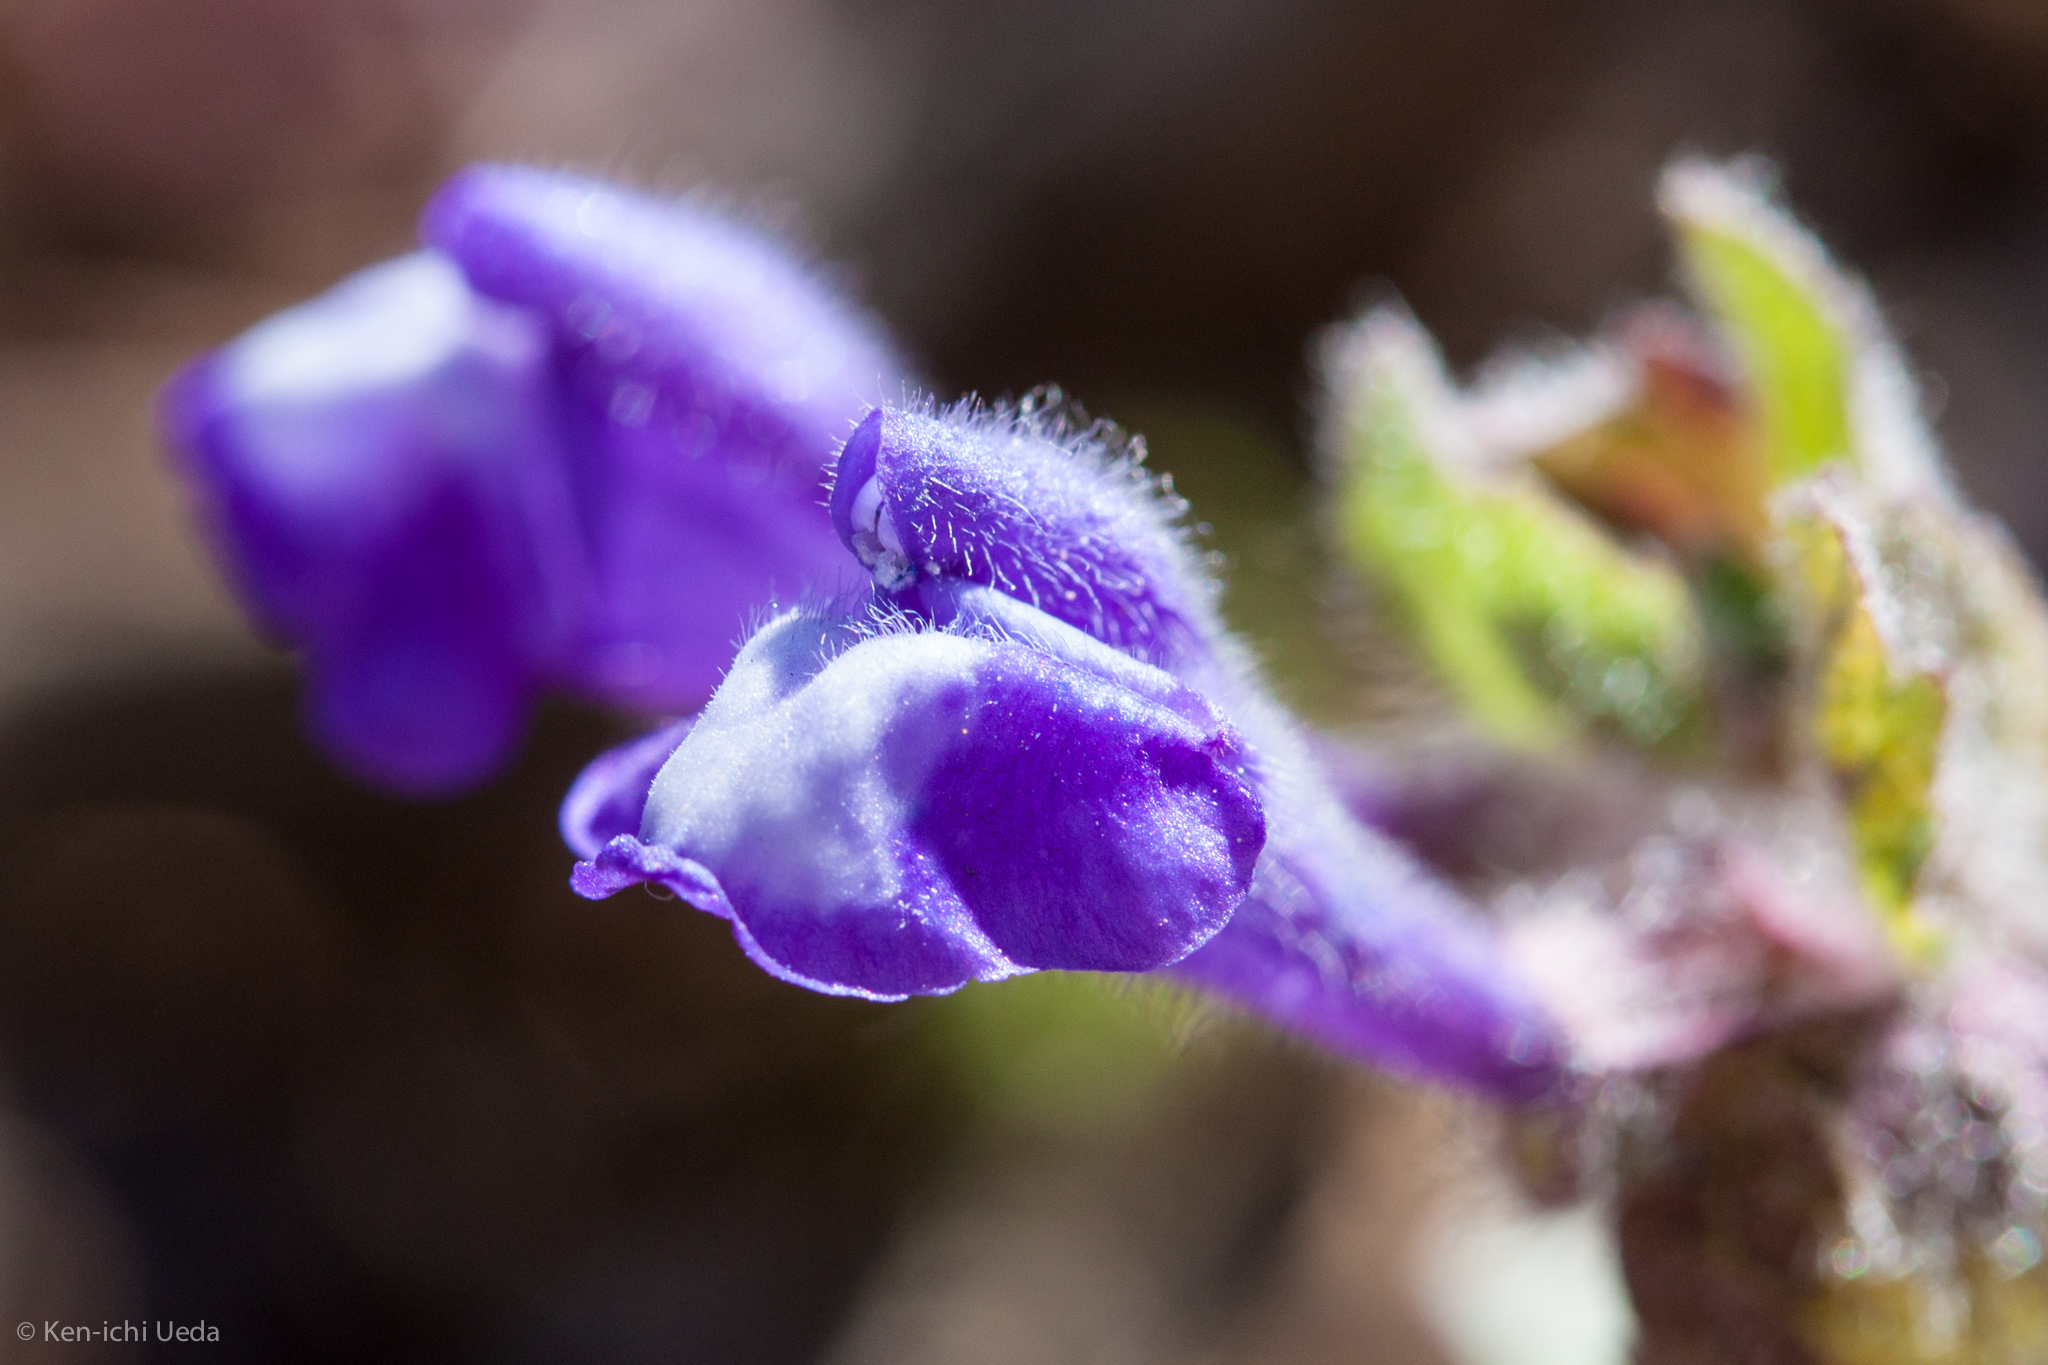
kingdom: Plantae
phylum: Tracheophyta
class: Magnoliopsida
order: Lamiales
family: Lamiaceae
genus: Scutellaria
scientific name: Scutellaria tuberosa
